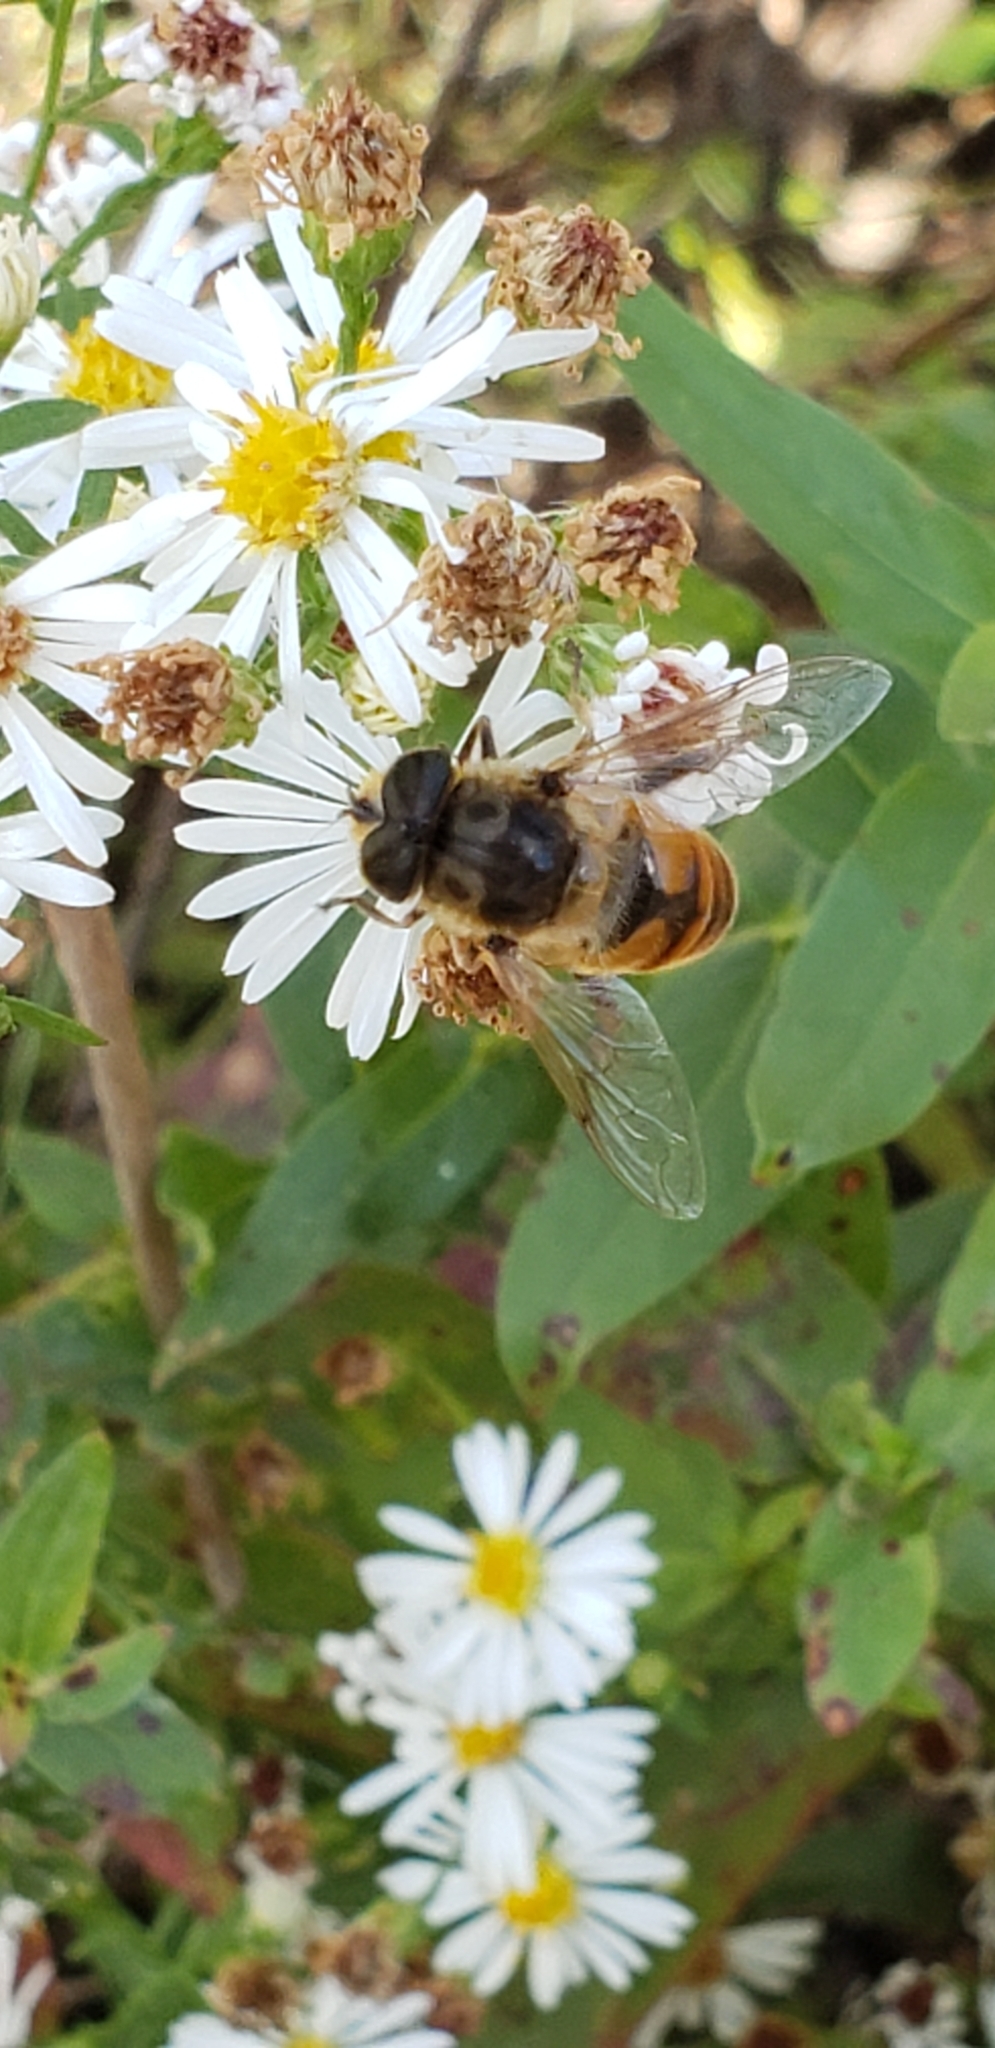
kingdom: Animalia
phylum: Arthropoda
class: Insecta
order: Diptera
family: Syrphidae
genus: Eristalis
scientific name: Eristalis tenax
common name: Drone fly
